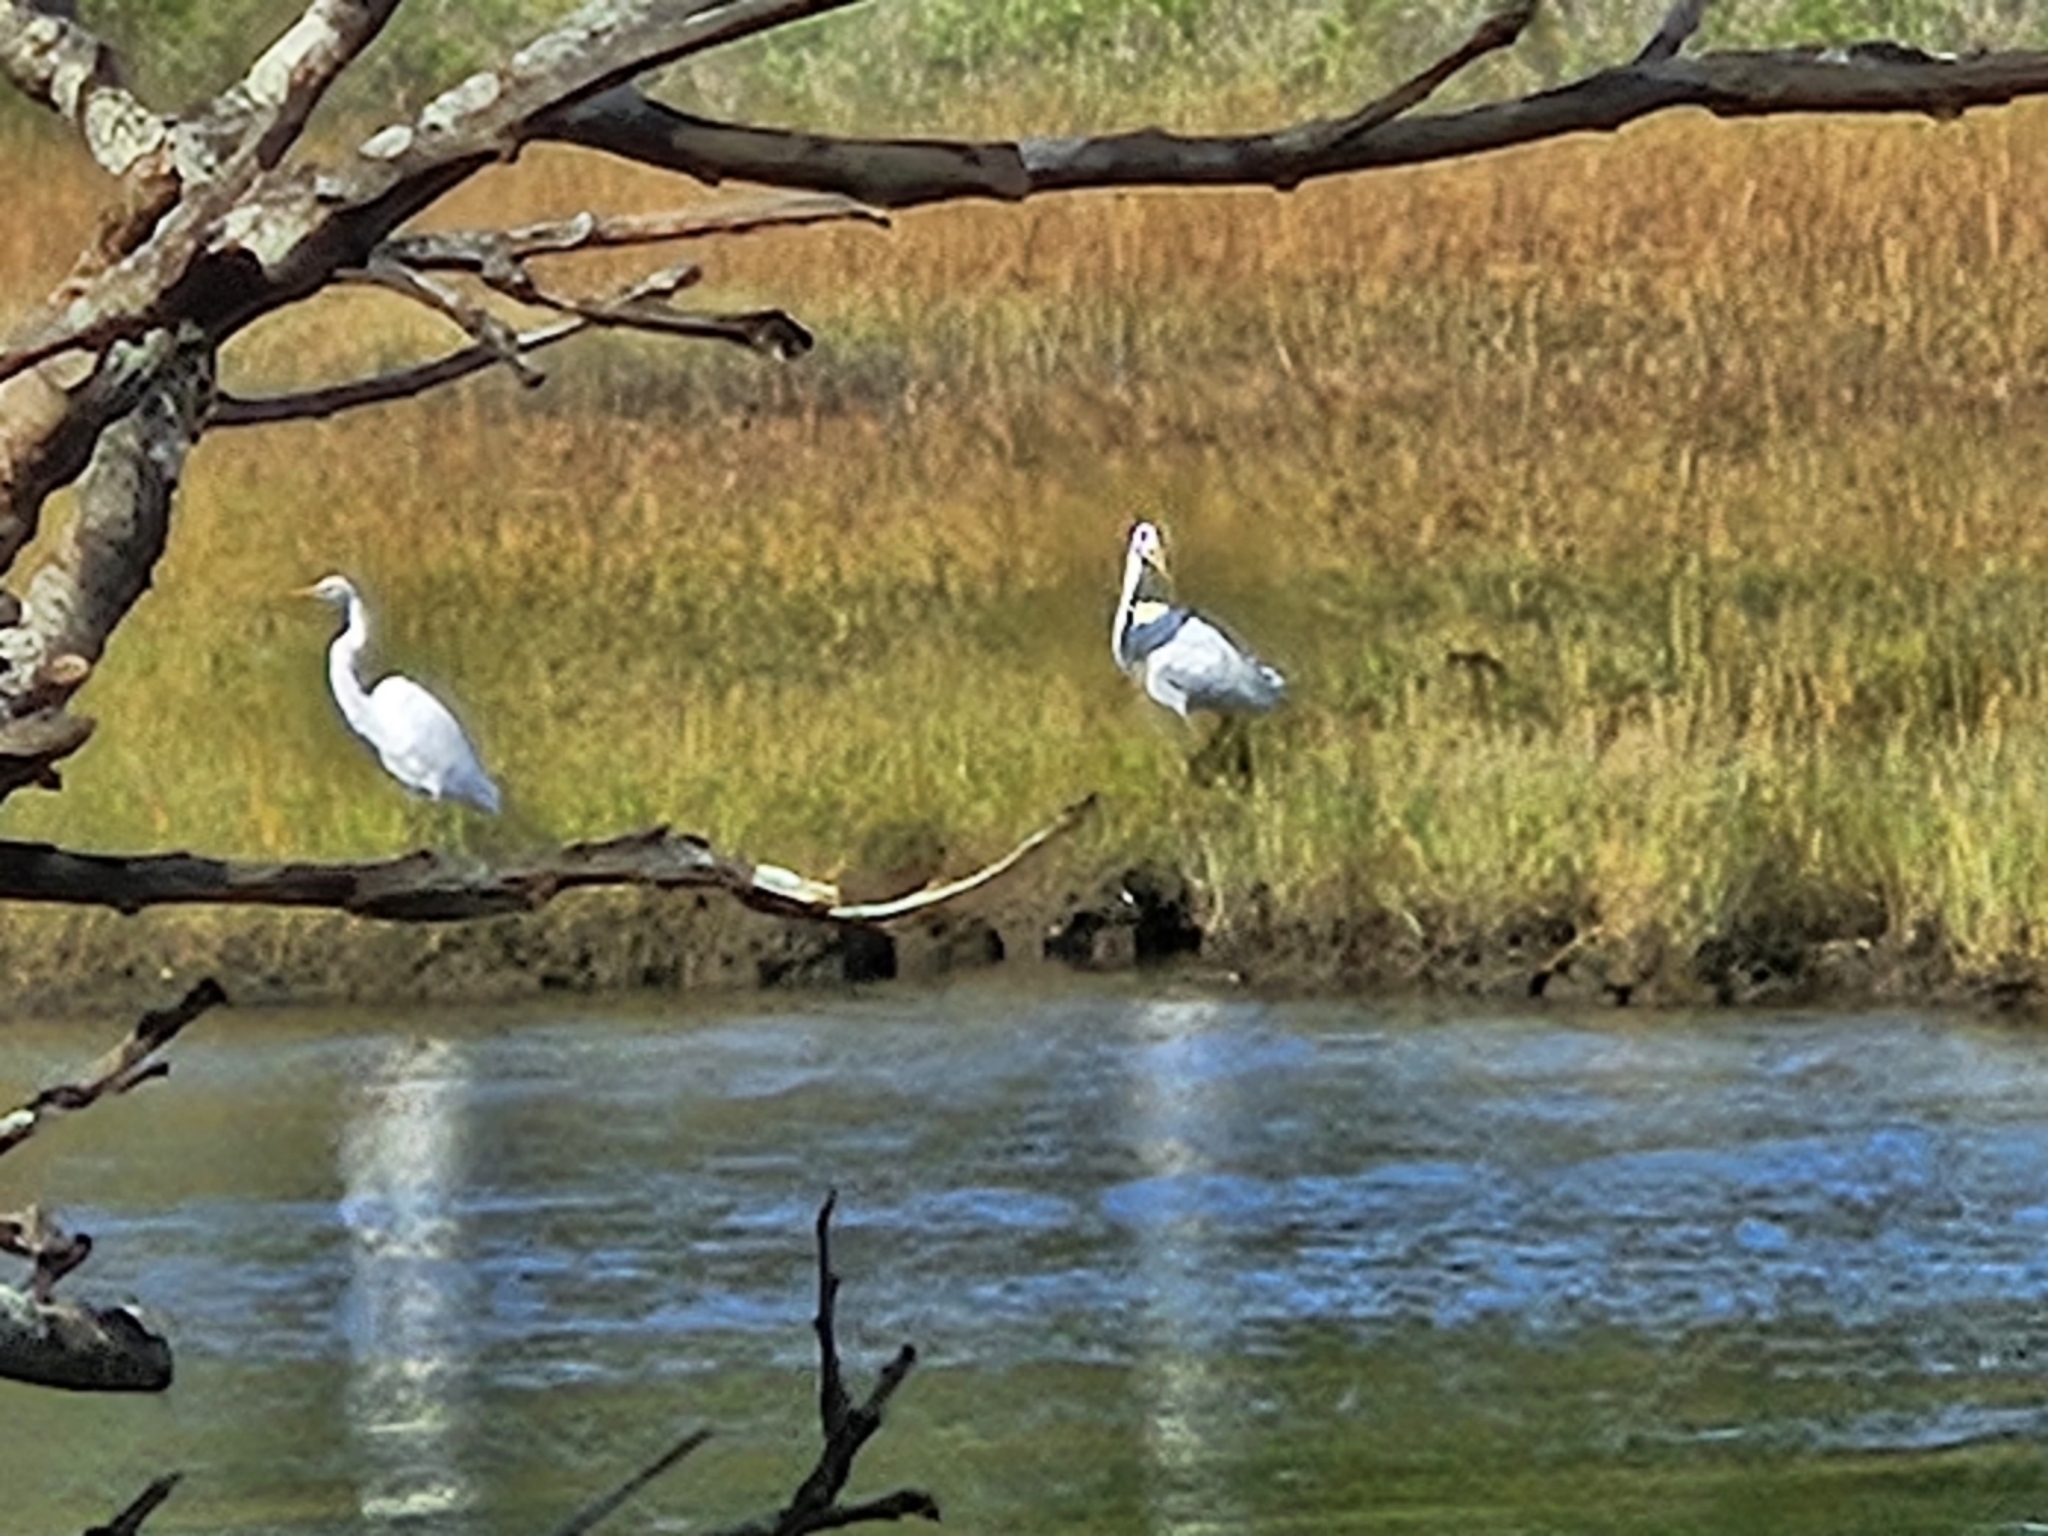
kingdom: Animalia
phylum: Chordata
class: Aves
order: Pelecaniformes
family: Ardeidae
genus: Ardea
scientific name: Ardea alba
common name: Great egret
